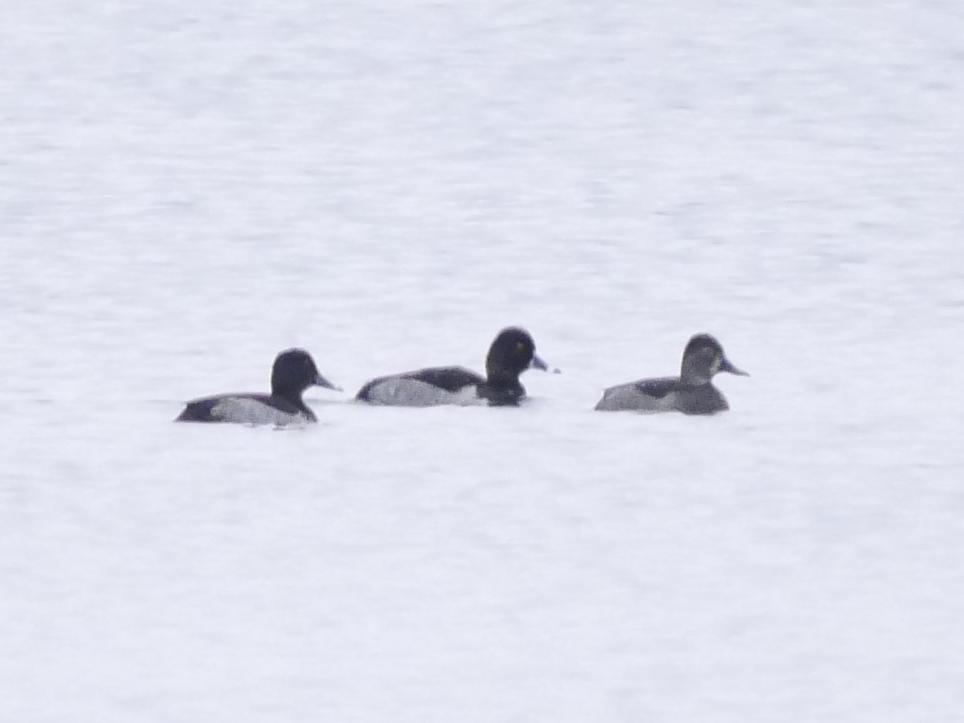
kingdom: Animalia
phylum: Chordata
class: Aves
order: Anseriformes
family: Anatidae
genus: Aythya
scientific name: Aythya collaris
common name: Ring-necked duck
